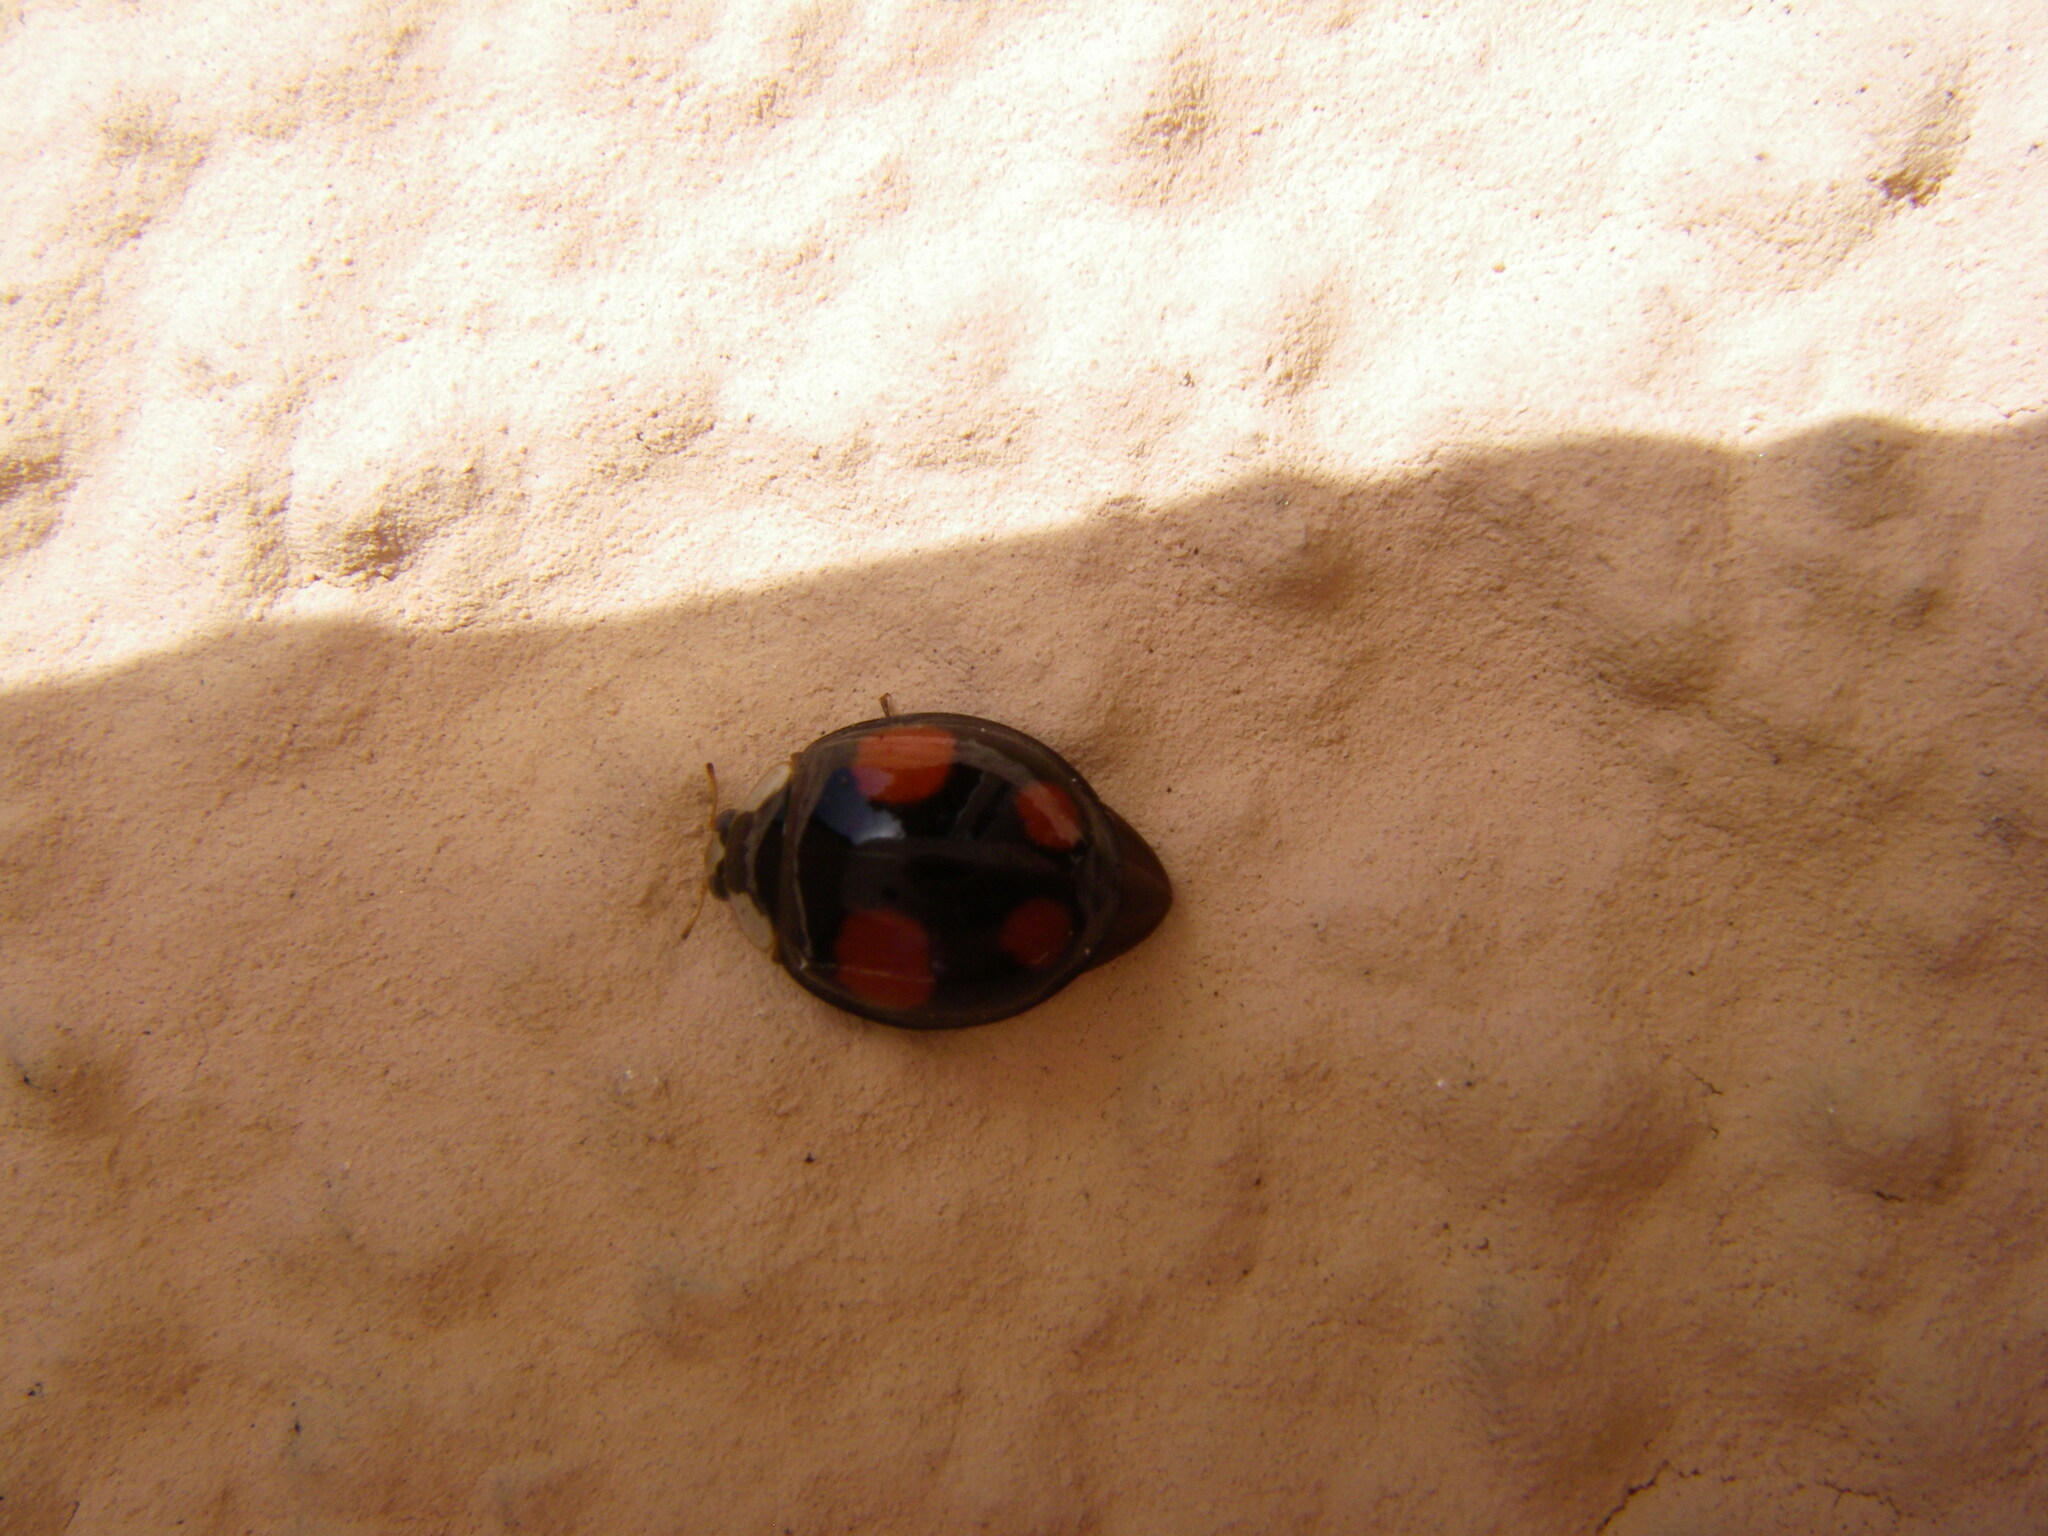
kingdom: Animalia
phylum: Arthropoda
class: Insecta
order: Coleoptera
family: Coccinellidae
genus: Harmonia
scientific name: Harmonia axyridis
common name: Harlequin ladybird
